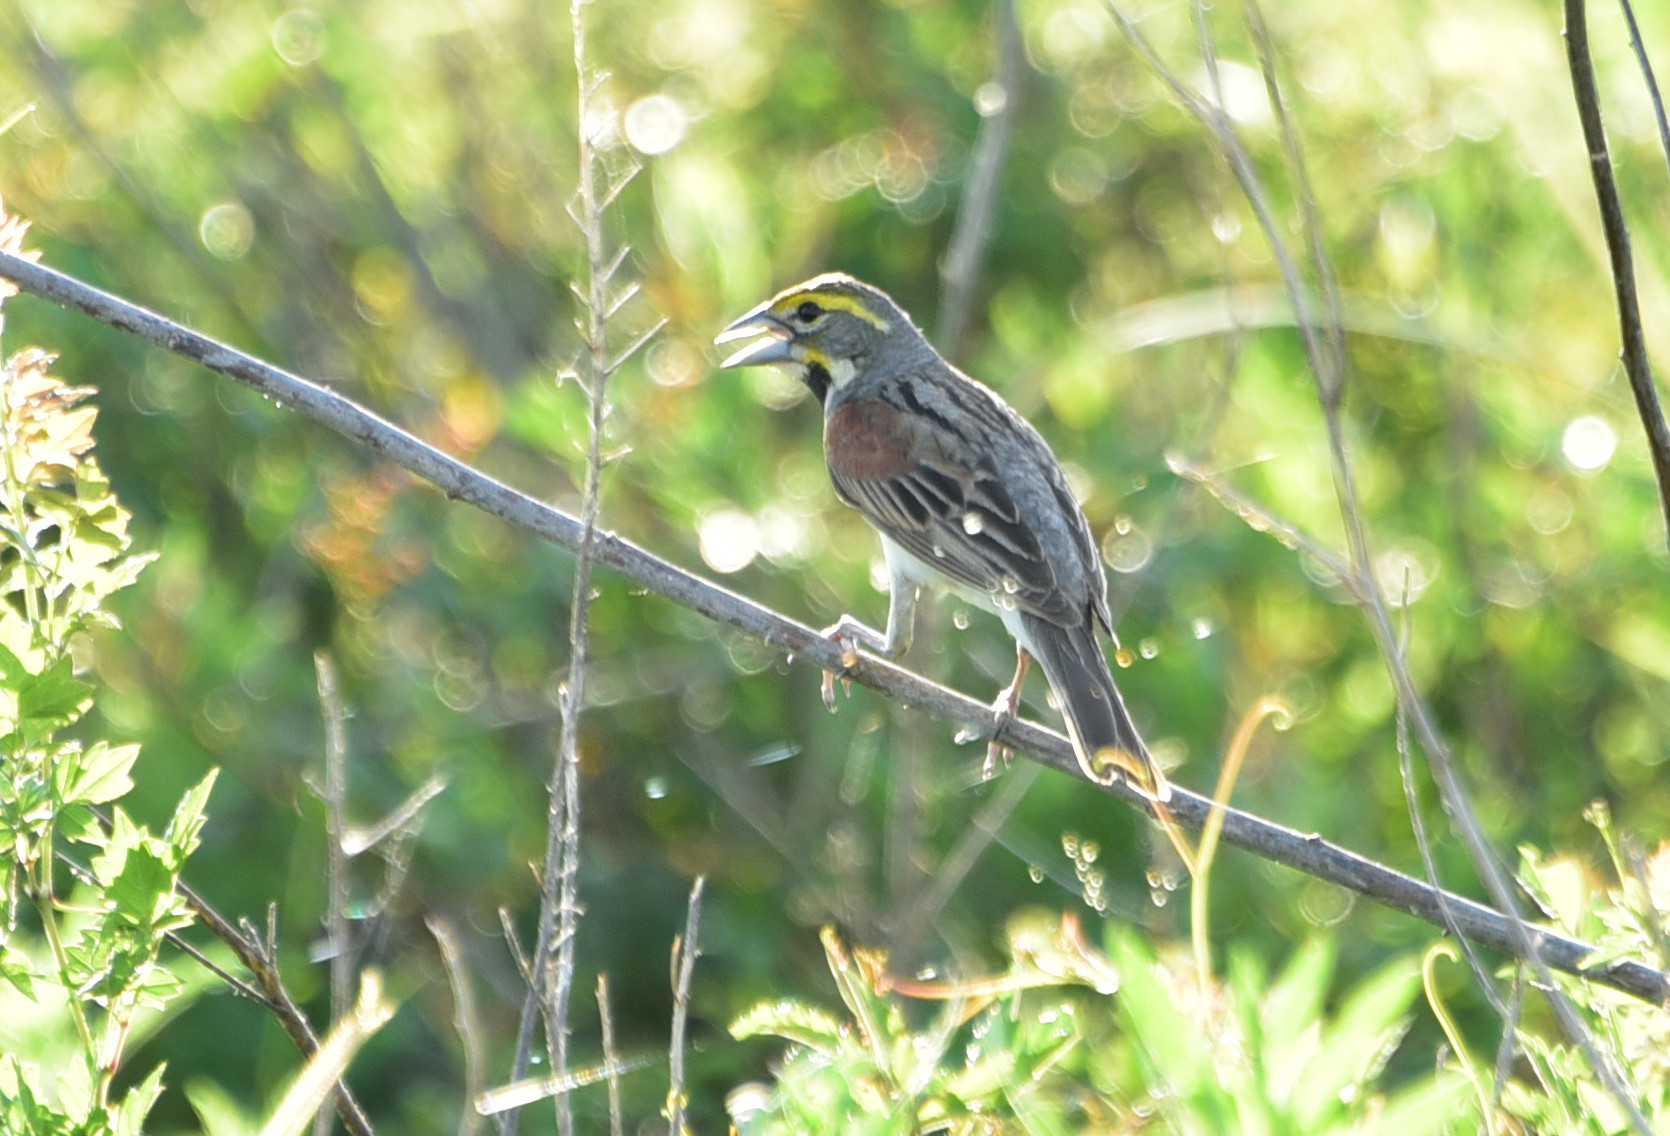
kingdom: Animalia
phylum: Chordata
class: Aves
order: Passeriformes
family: Cardinalidae
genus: Spiza
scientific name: Spiza americana
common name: Dickcissel
